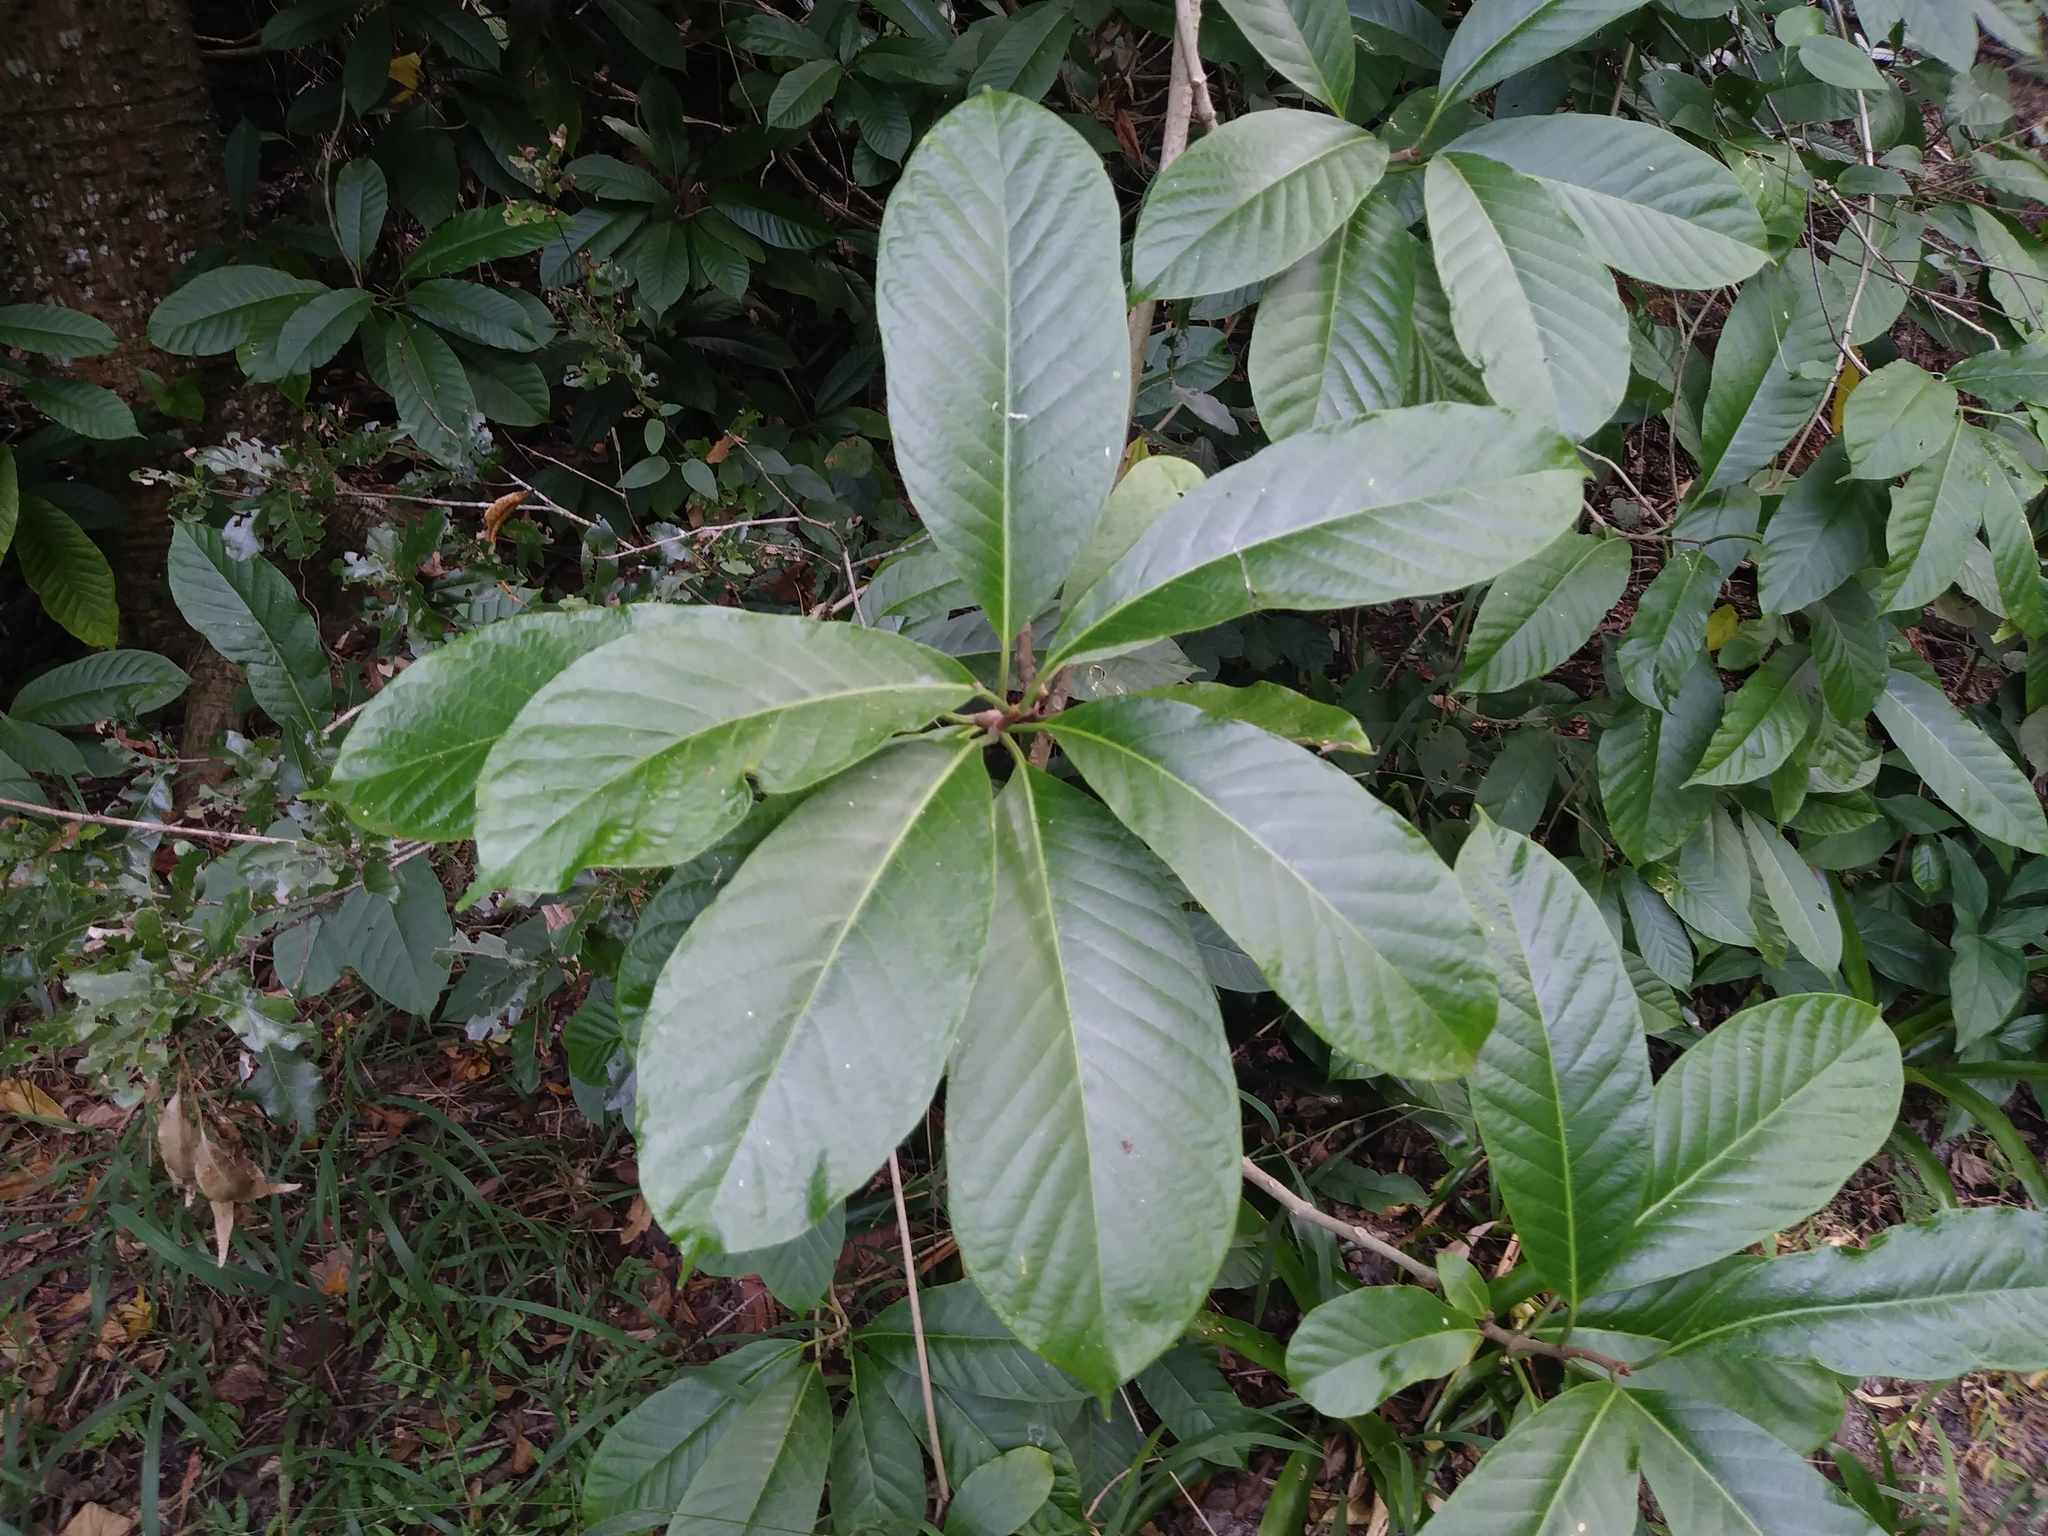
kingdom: Plantae
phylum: Tracheophyta
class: Magnoliopsida
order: Rosales
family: Rosaceae
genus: Rhaphiolepis
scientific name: Rhaphiolepis bibas
